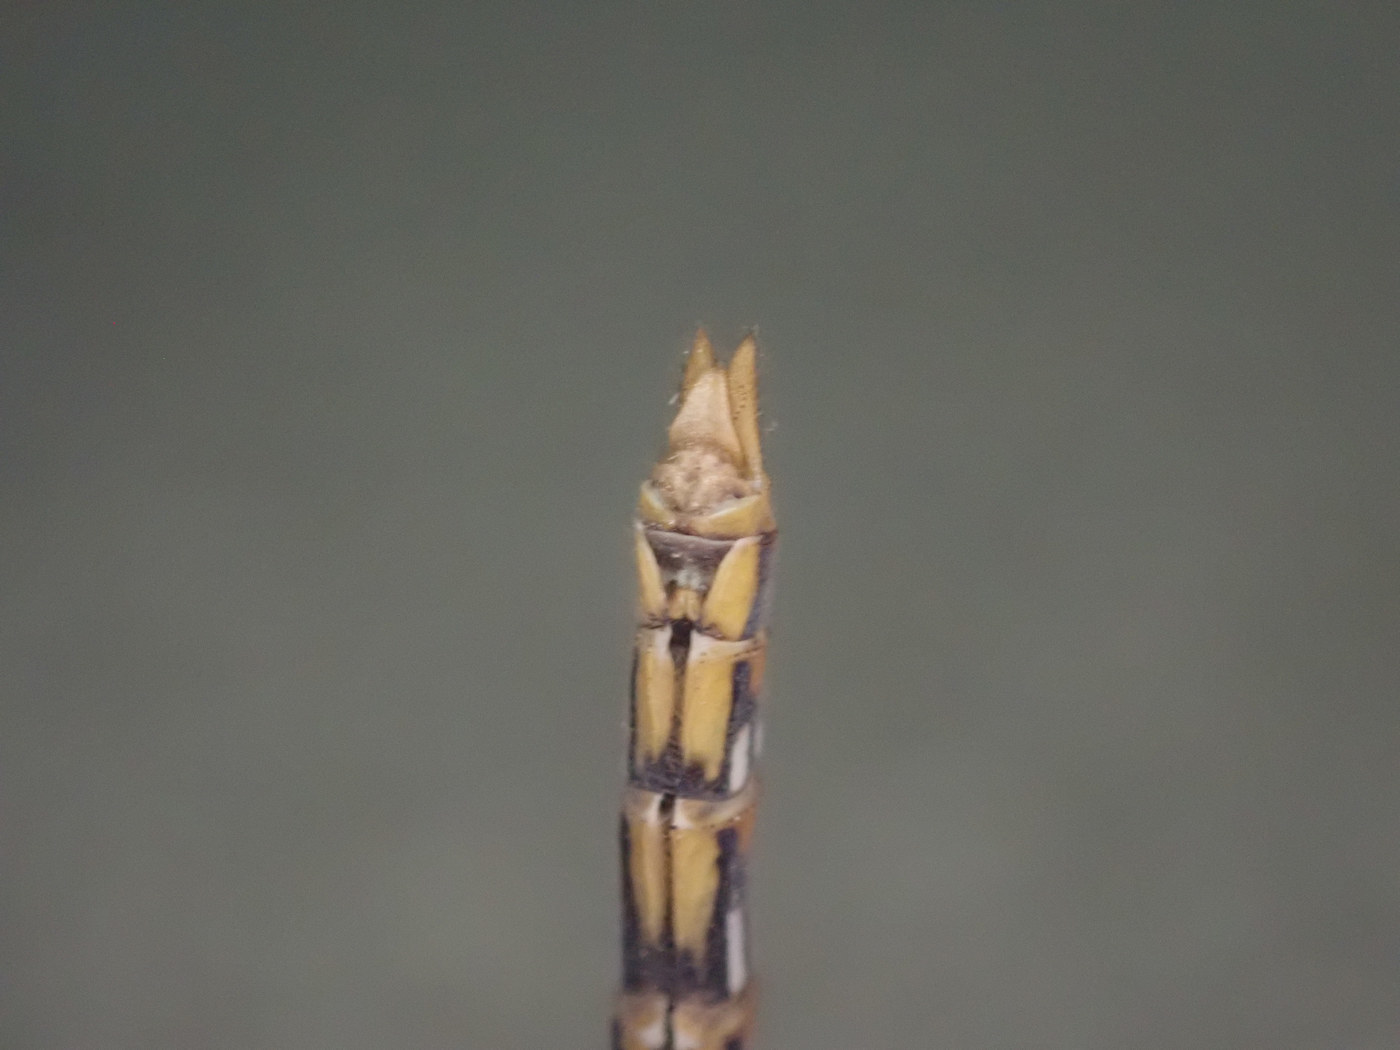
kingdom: Animalia
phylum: Arthropoda
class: Insecta
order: Odonata
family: Libellulidae
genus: Sympetrum
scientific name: Sympetrum corruptum
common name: Variegated meadowhawk
